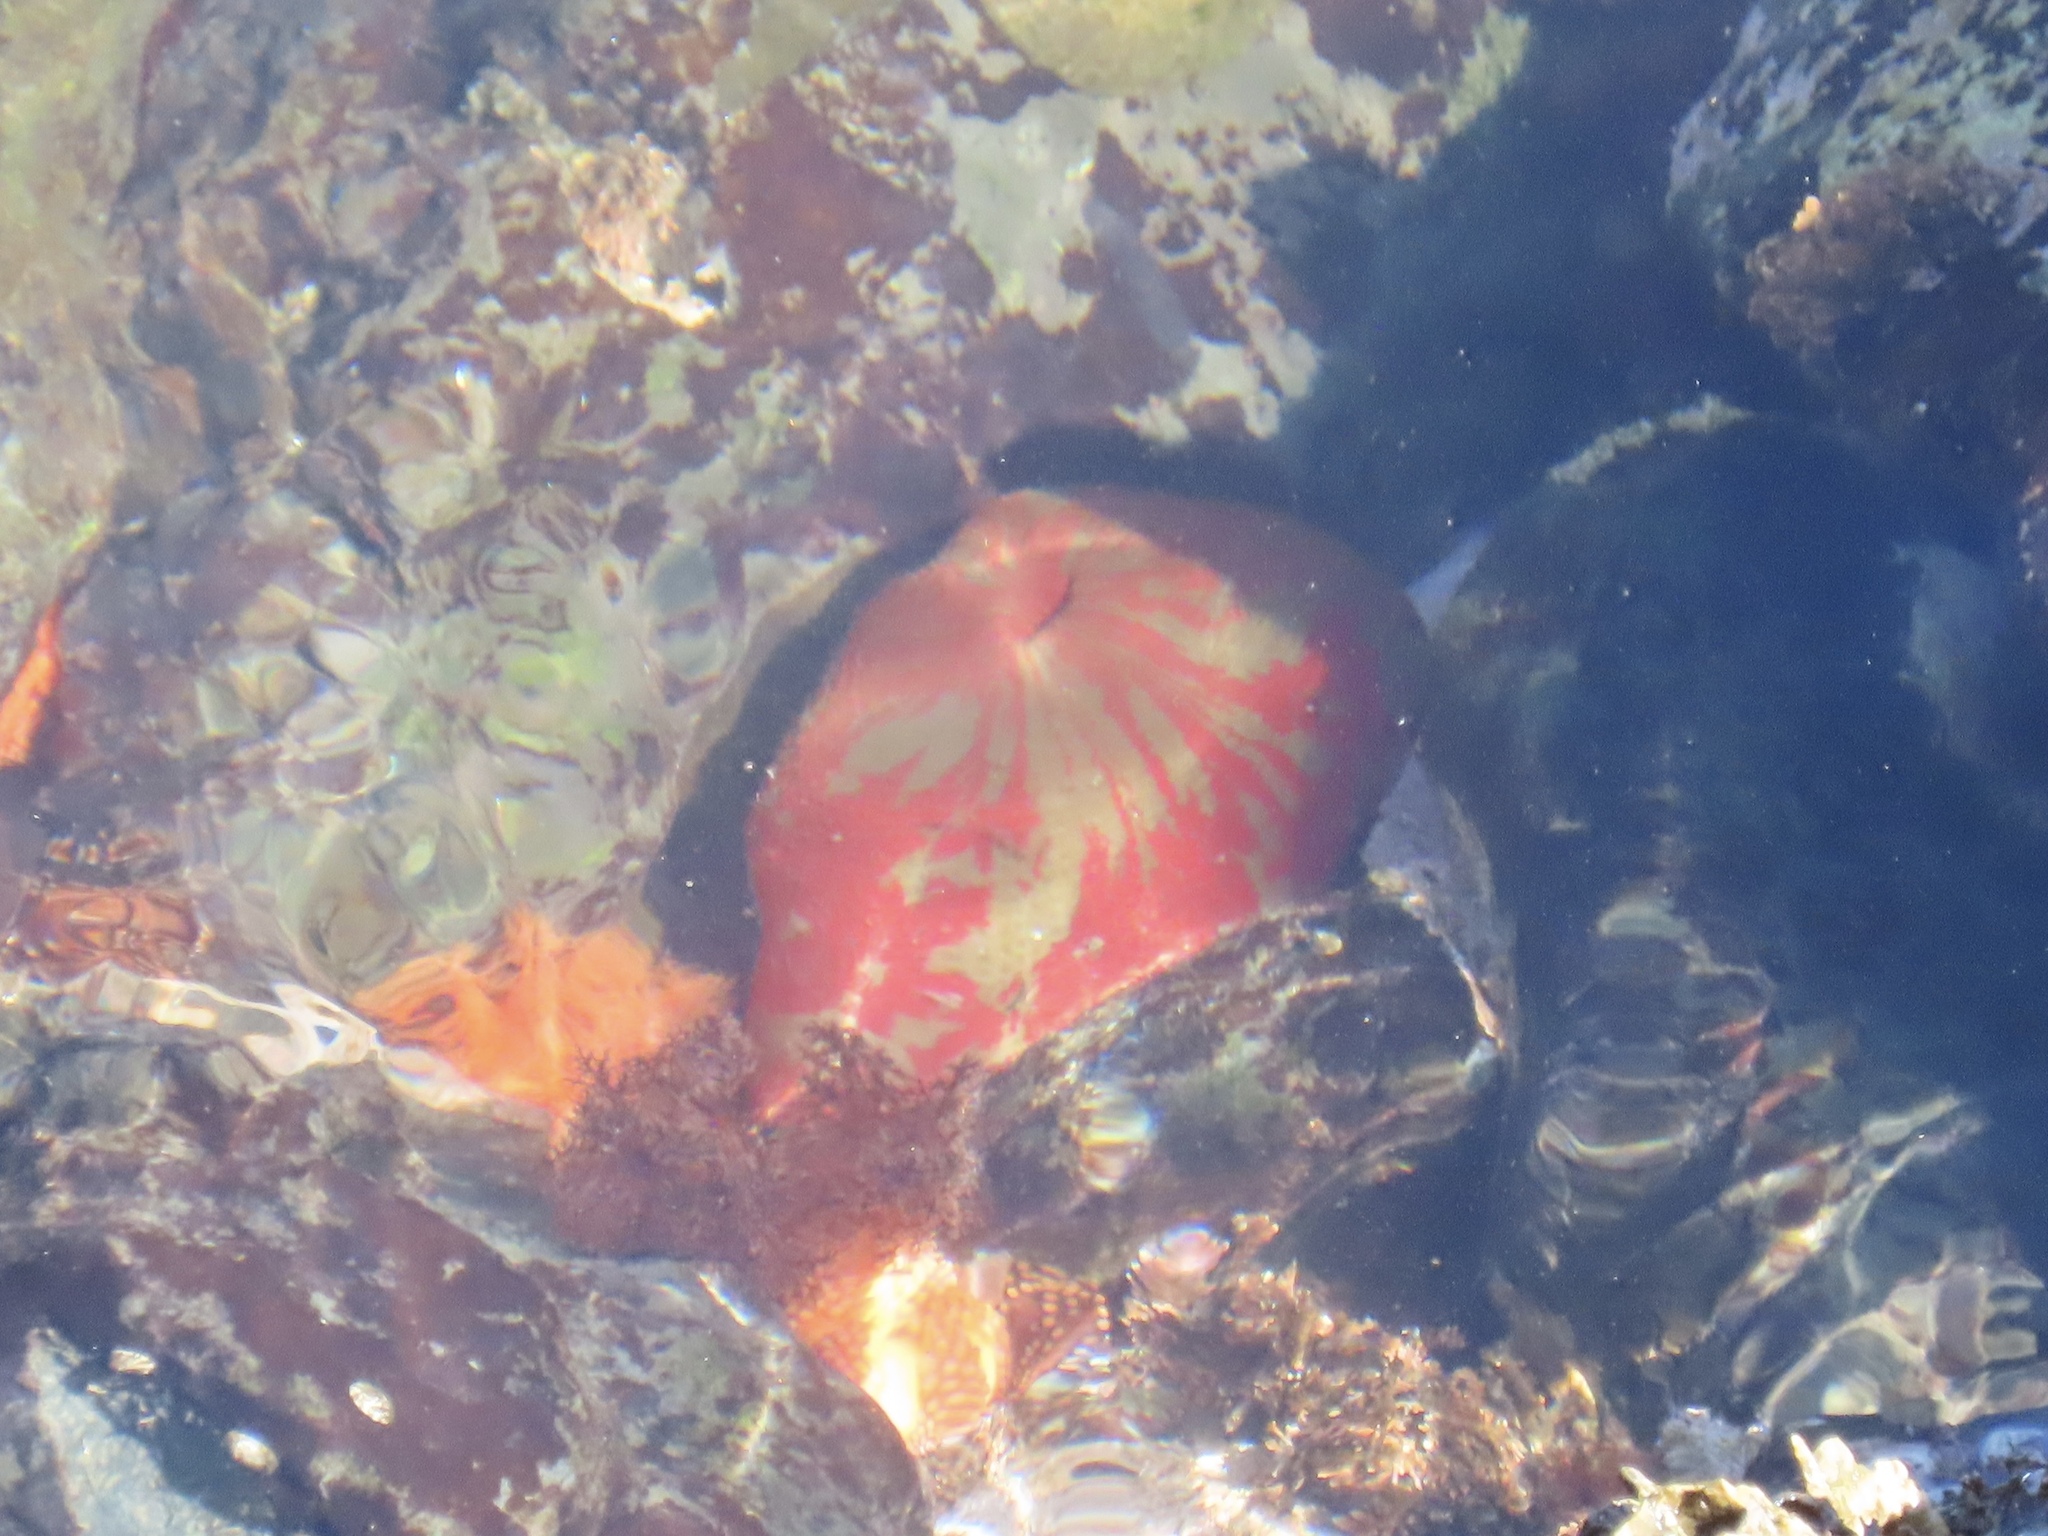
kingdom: Animalia
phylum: Cnidaria
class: Anthozoa
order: Actiniaria
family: Actiniidae
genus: Urticina
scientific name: Urticina grebelnyi
